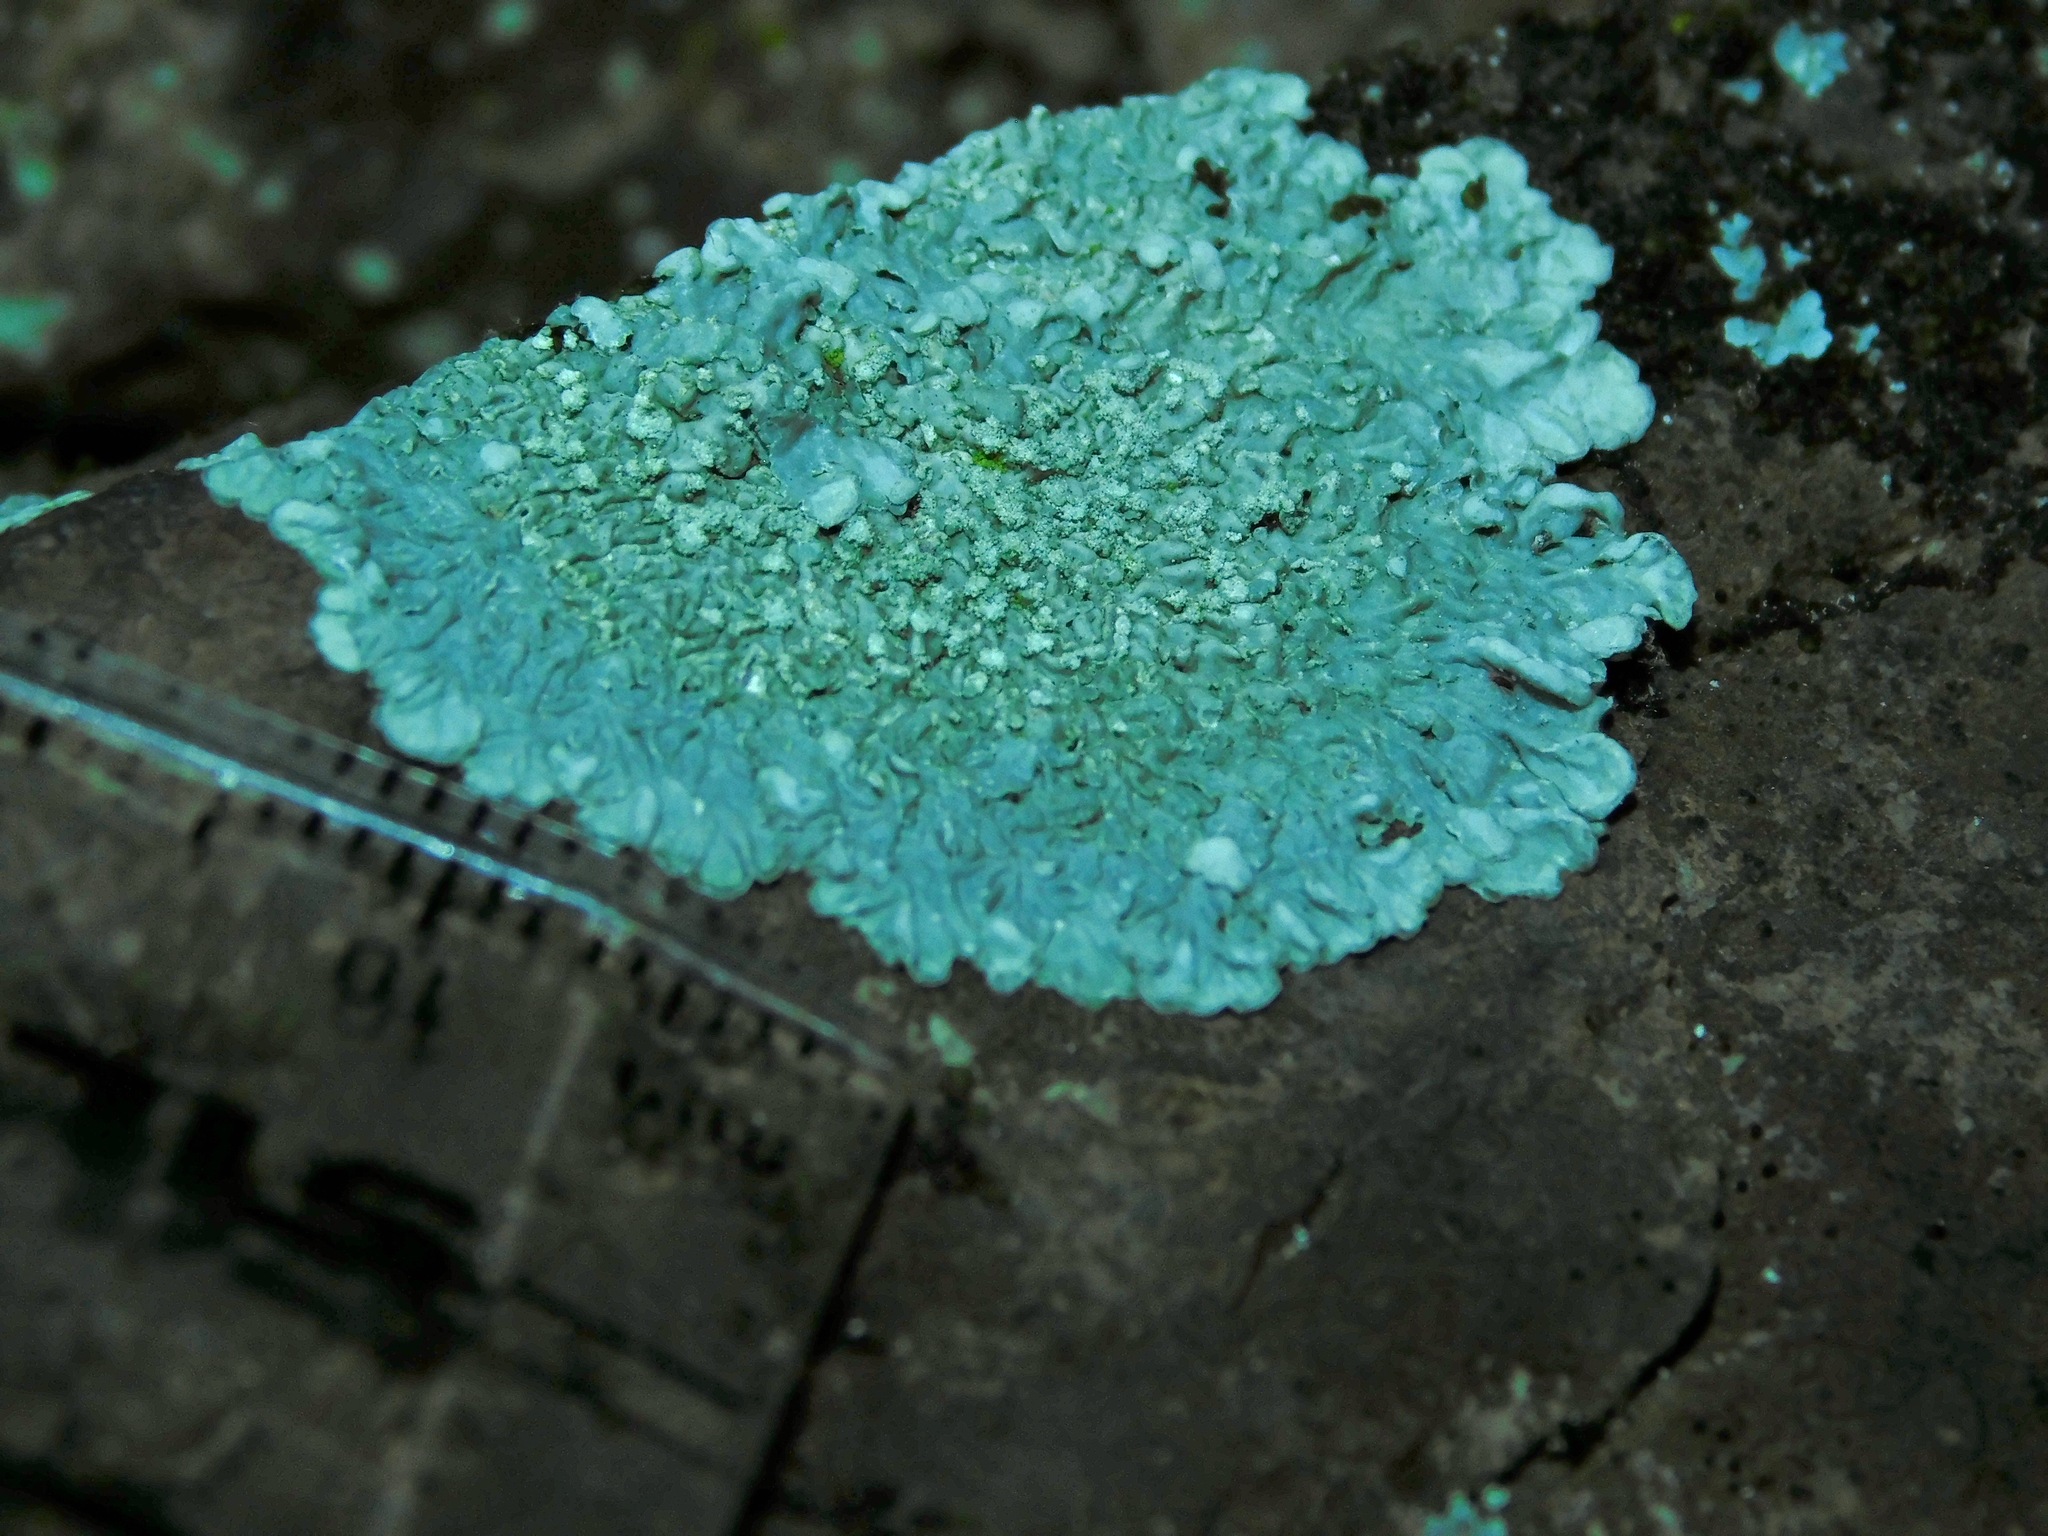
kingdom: Fungi
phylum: Ascomycota
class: Lecanoromycetes
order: Caliciales
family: Caliciaceae
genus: Dirinaria
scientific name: Dirinaria frostii
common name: Frosty medallion lichen
